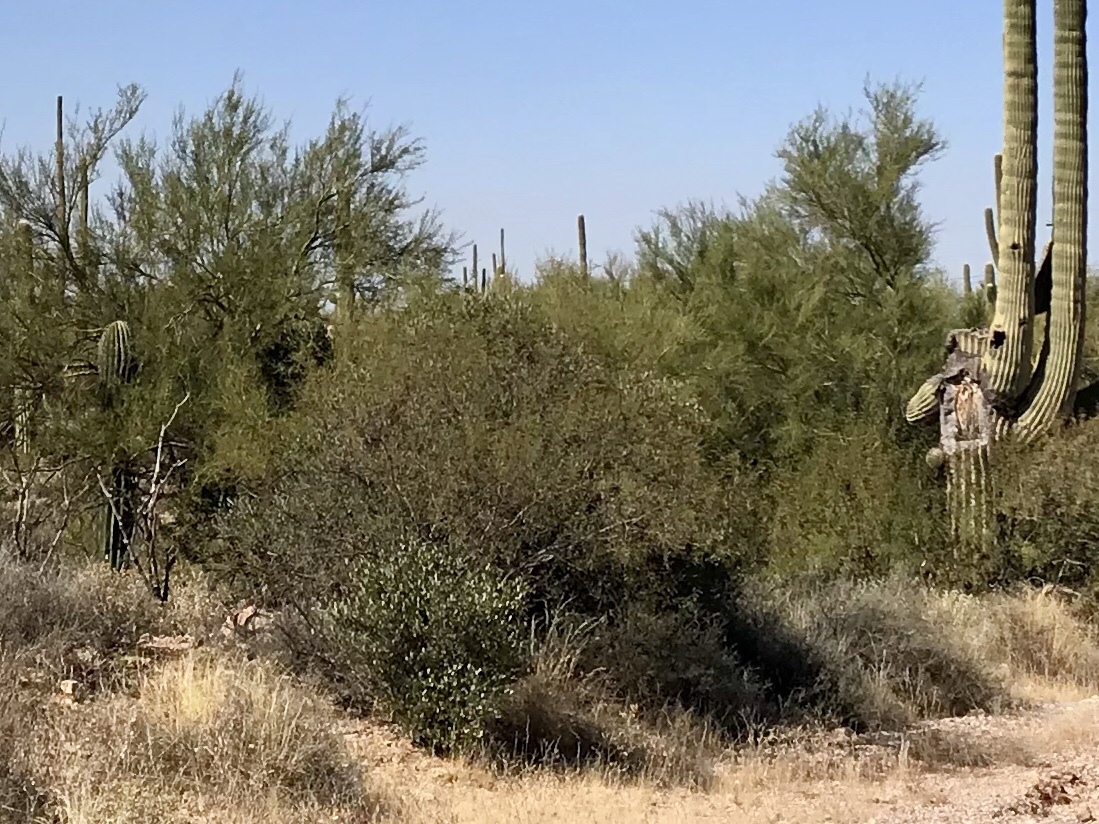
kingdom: Plantae
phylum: Tracheophyta
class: Magnoliopsida
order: Fabales
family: Fabaceae
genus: Vachellia
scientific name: Vachellia constricta
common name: Mescat acacia
